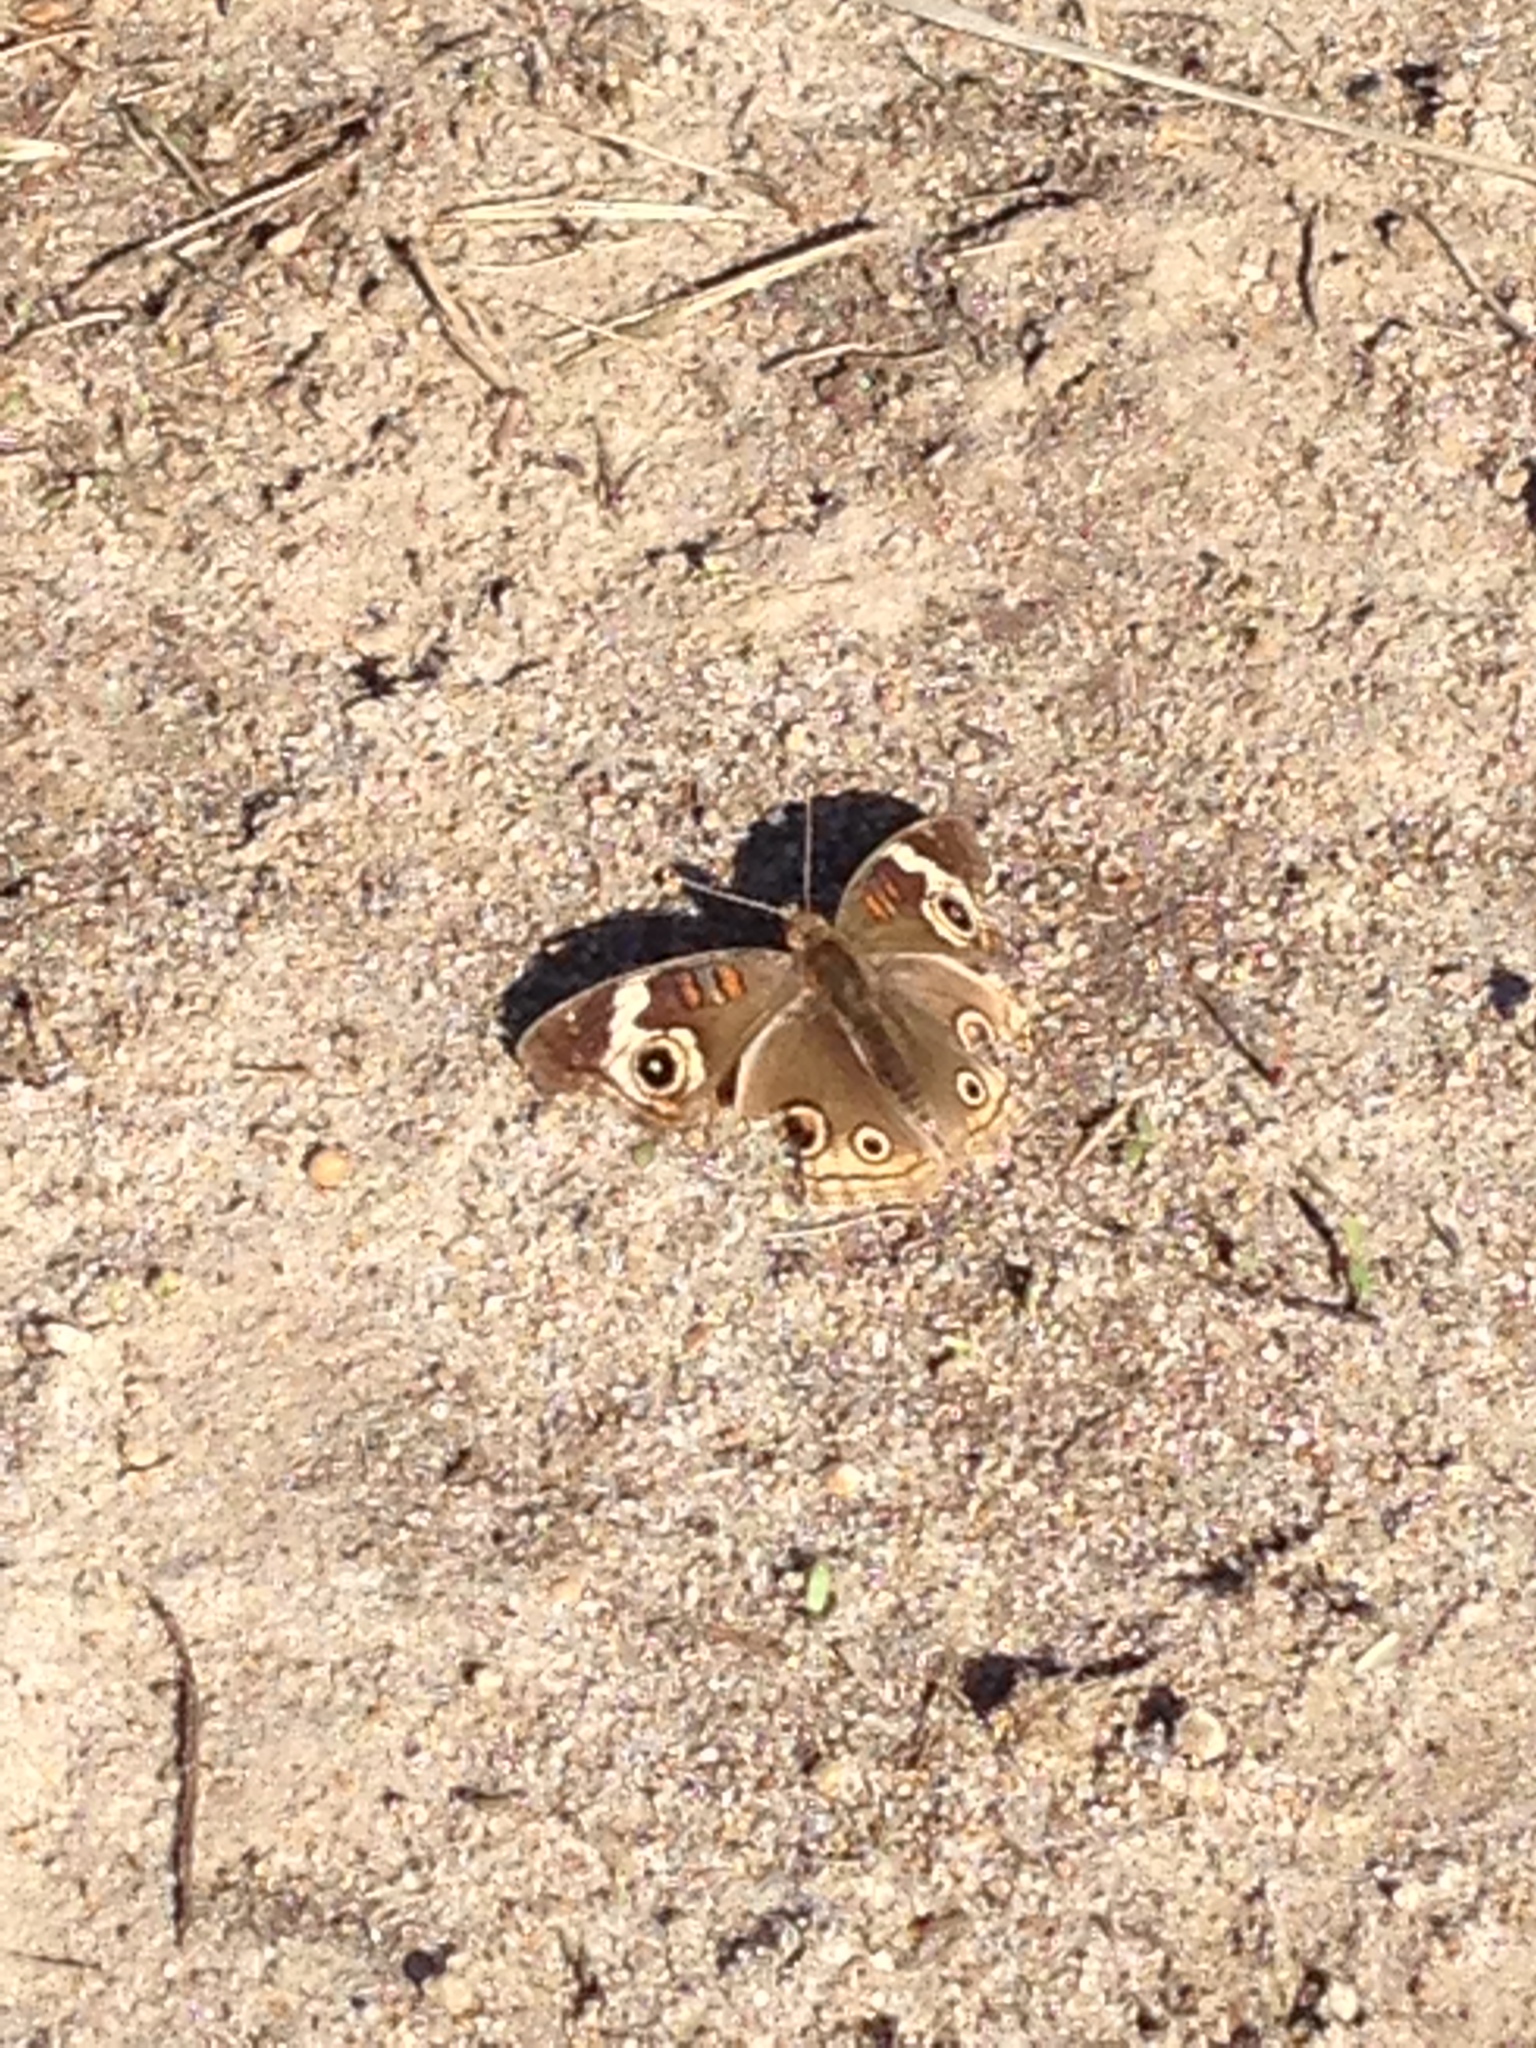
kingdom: Animalia
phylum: Arthropoda
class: Insecta
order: Lepidoptera
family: Nymphalidae
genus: Junonia
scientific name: Junonia grisea
